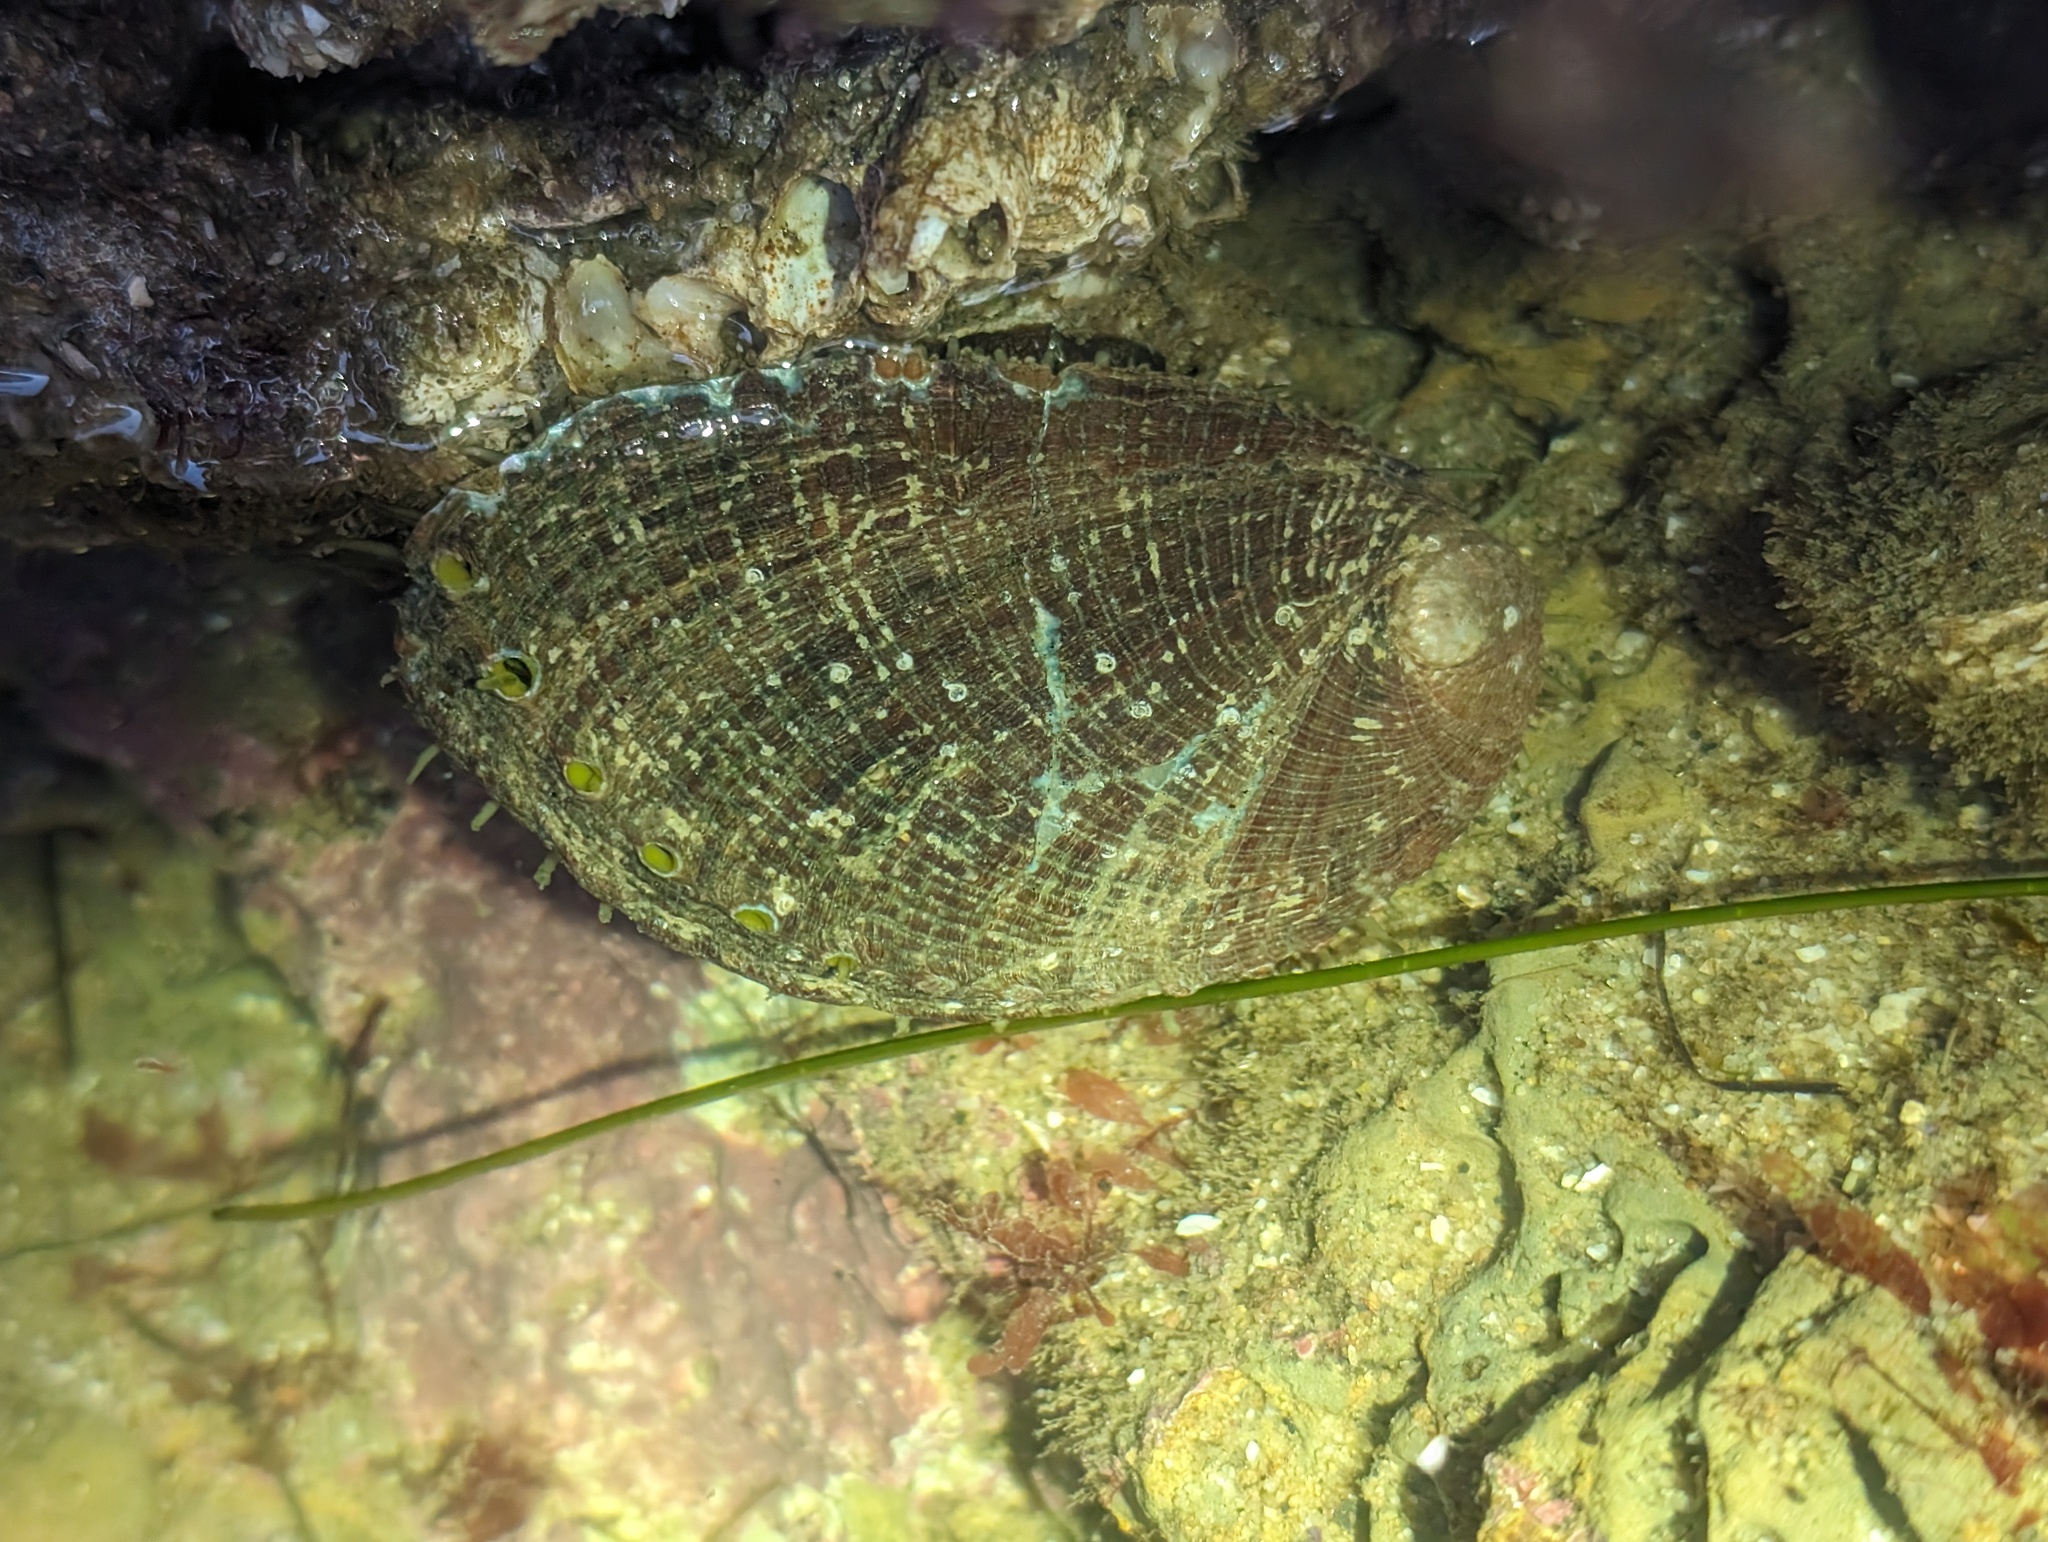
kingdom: Animalia
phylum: Mollusca
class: Gastropoda
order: Lepetellida
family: Haliotidae
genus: Haliotis
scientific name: Haliotis fulgens
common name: Green abalone
